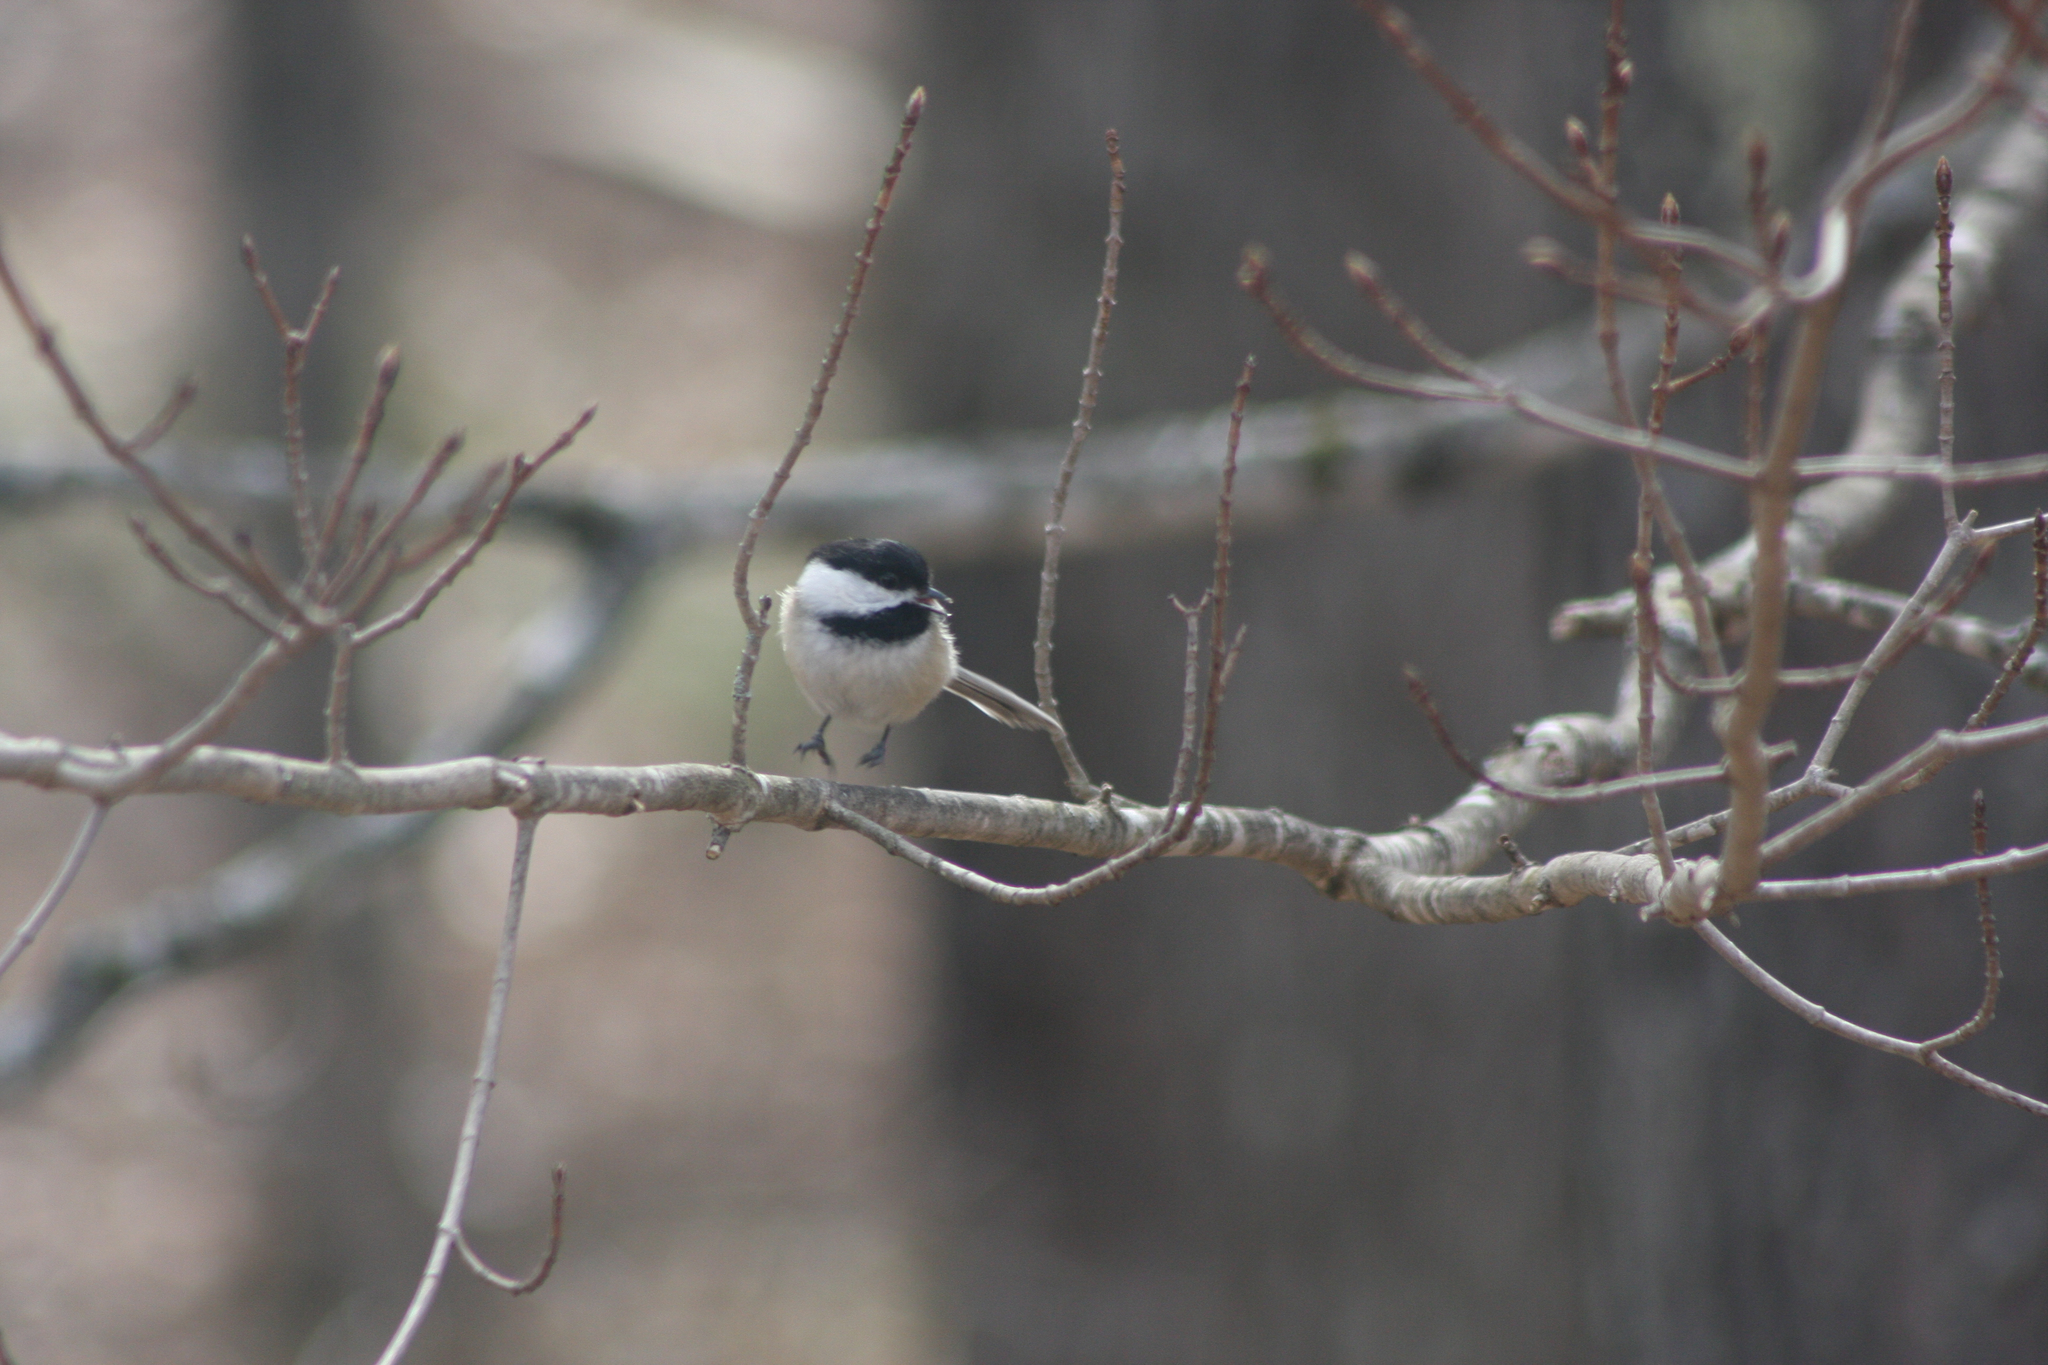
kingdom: Animalia
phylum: Chordata
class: Aves
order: Passeriformes
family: Paridae
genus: Poecile
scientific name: Poecile atricapillus
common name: Black-capped chickadee
